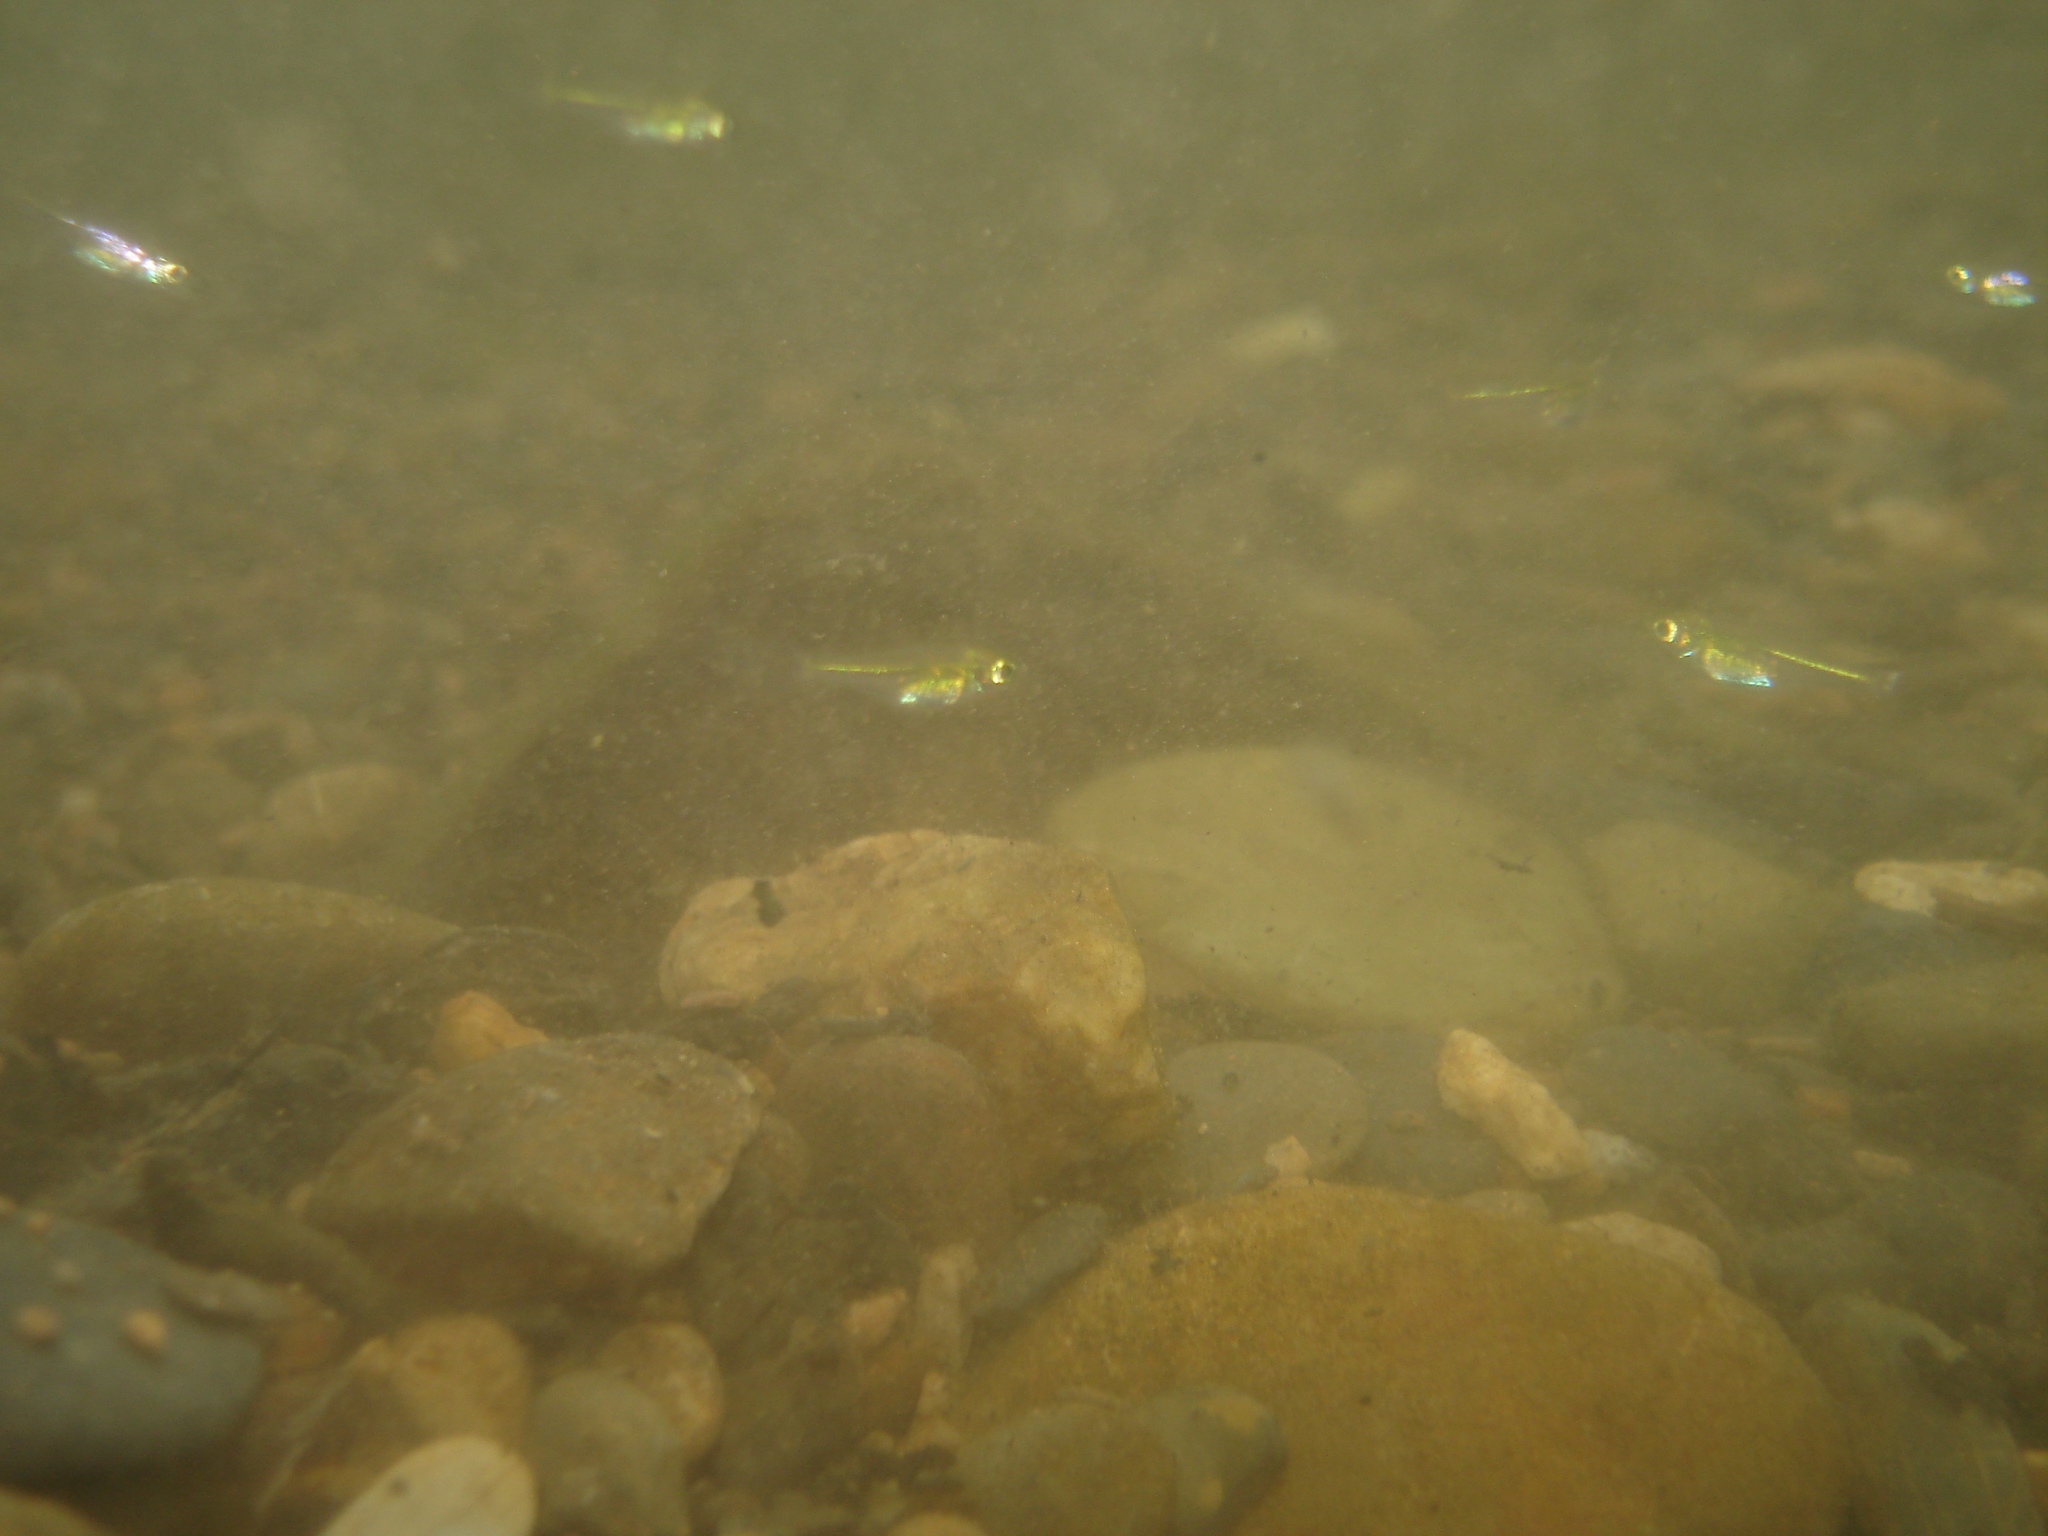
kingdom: Animalia
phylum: Chordata
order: Cypriniformes
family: Cyprinidae
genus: Microdevario
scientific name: Microdevario kubotai
